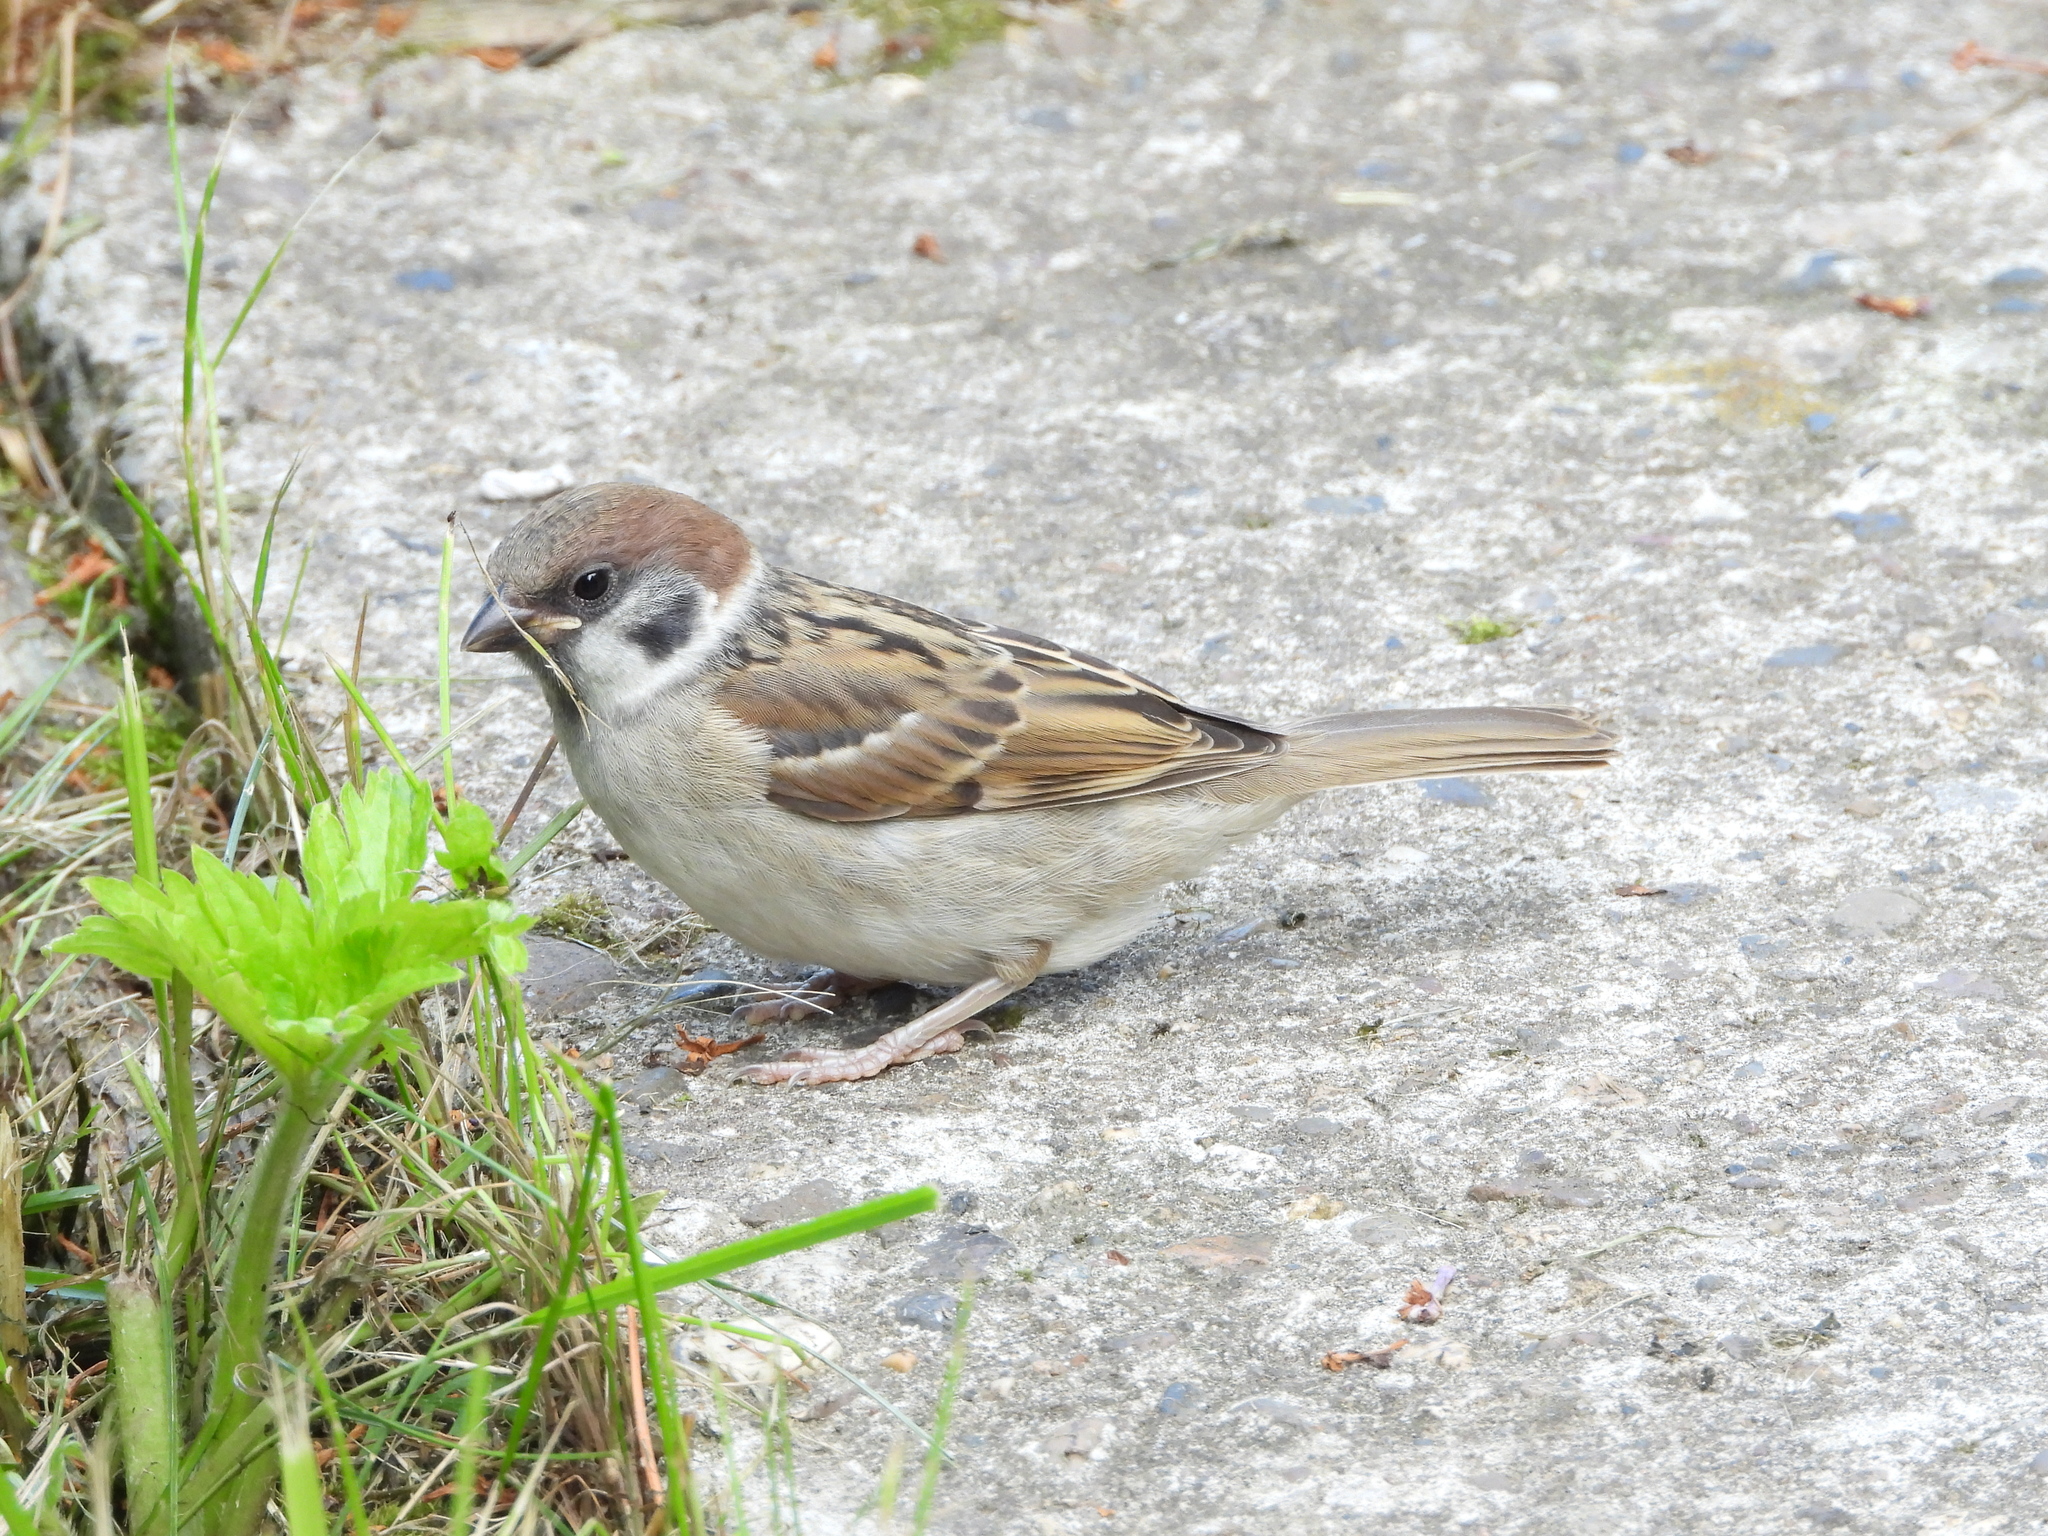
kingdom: Animalia
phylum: Chordata
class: Aves
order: Passeriformes
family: Passeridae
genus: Passer
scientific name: Passer montanus
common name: Eurasian tree sparrow
